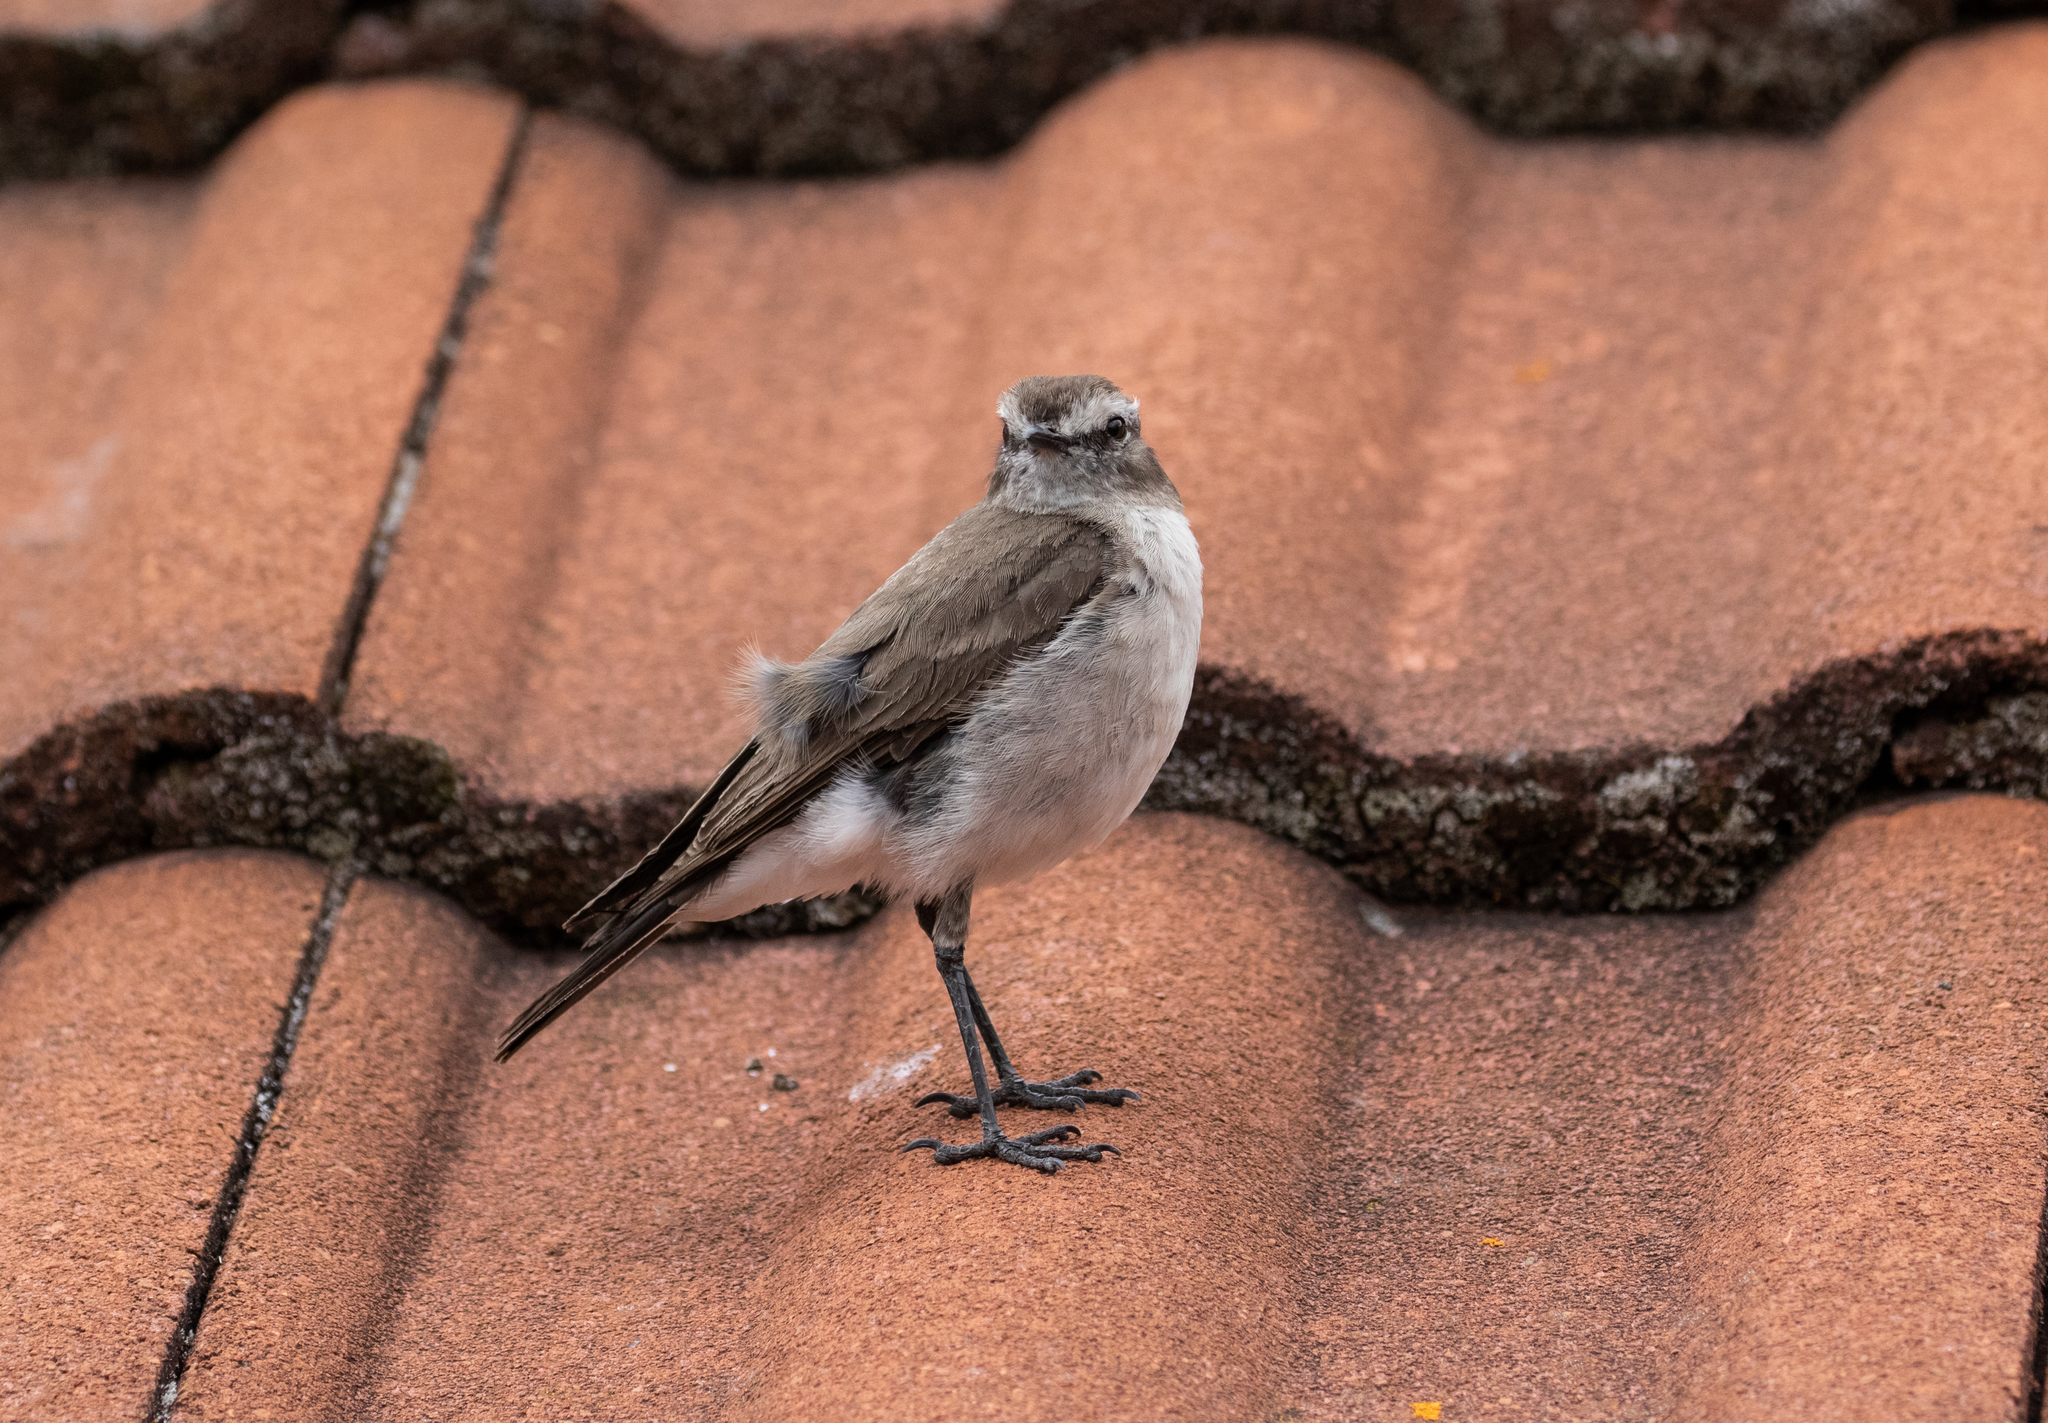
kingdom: Animalia
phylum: Chordata
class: Aves
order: Passeriformes
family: Tyrannidae
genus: Muscisaxicola
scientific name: Muscisaxicola alpinus
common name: Paramo ground tyrant
